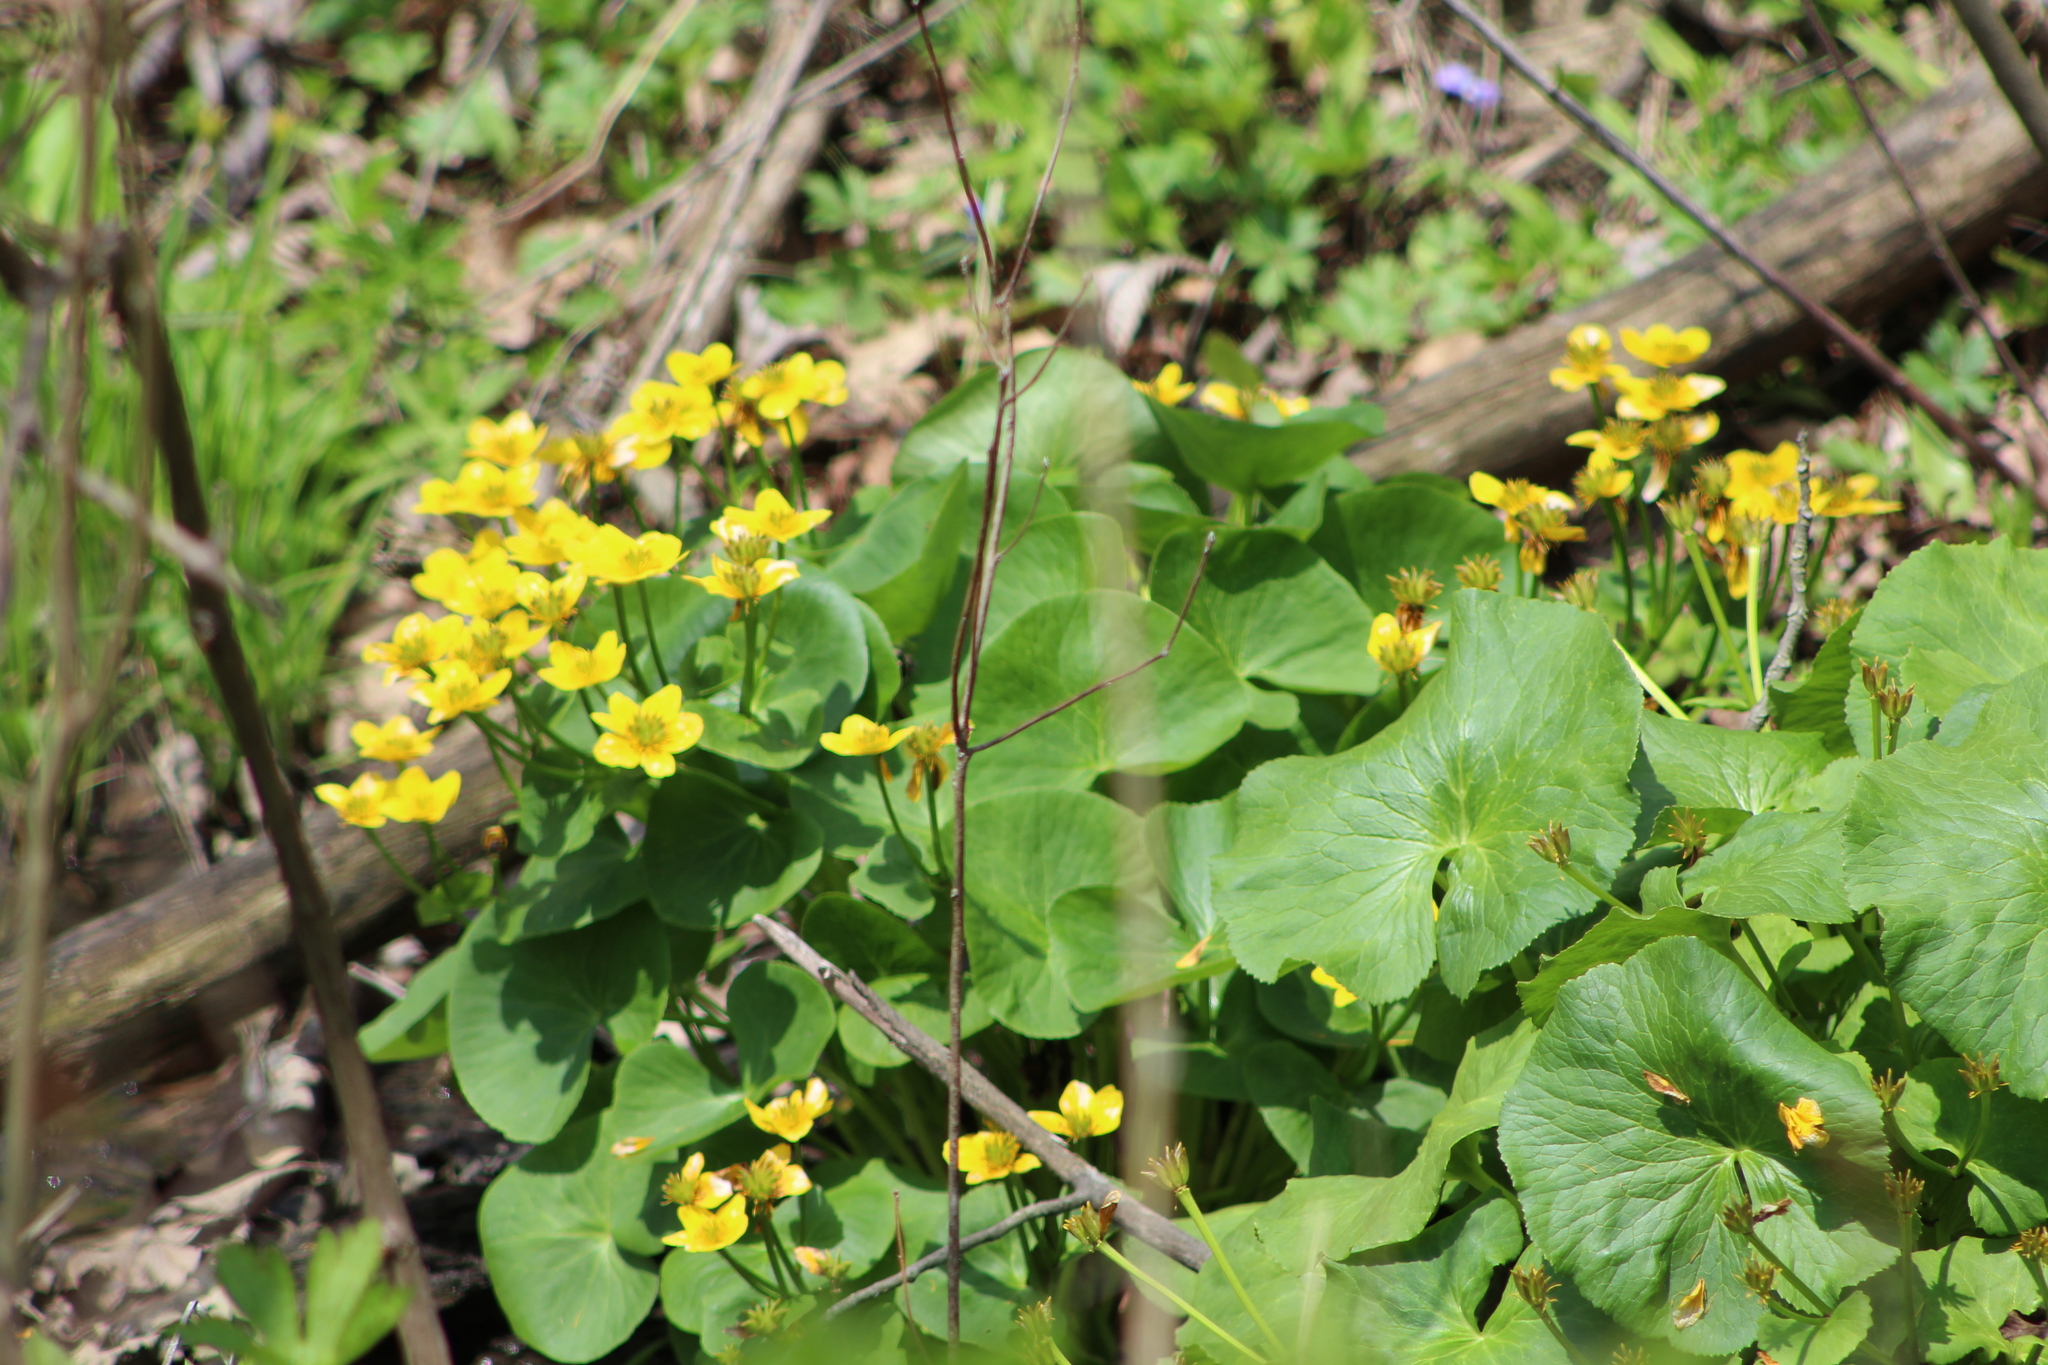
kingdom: Plantae
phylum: Tracheophyta
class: Magnoliopsida
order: Ranunculales
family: Ranunculaceae
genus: Caltha
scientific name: Caltha palustris
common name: Marsh marigold
